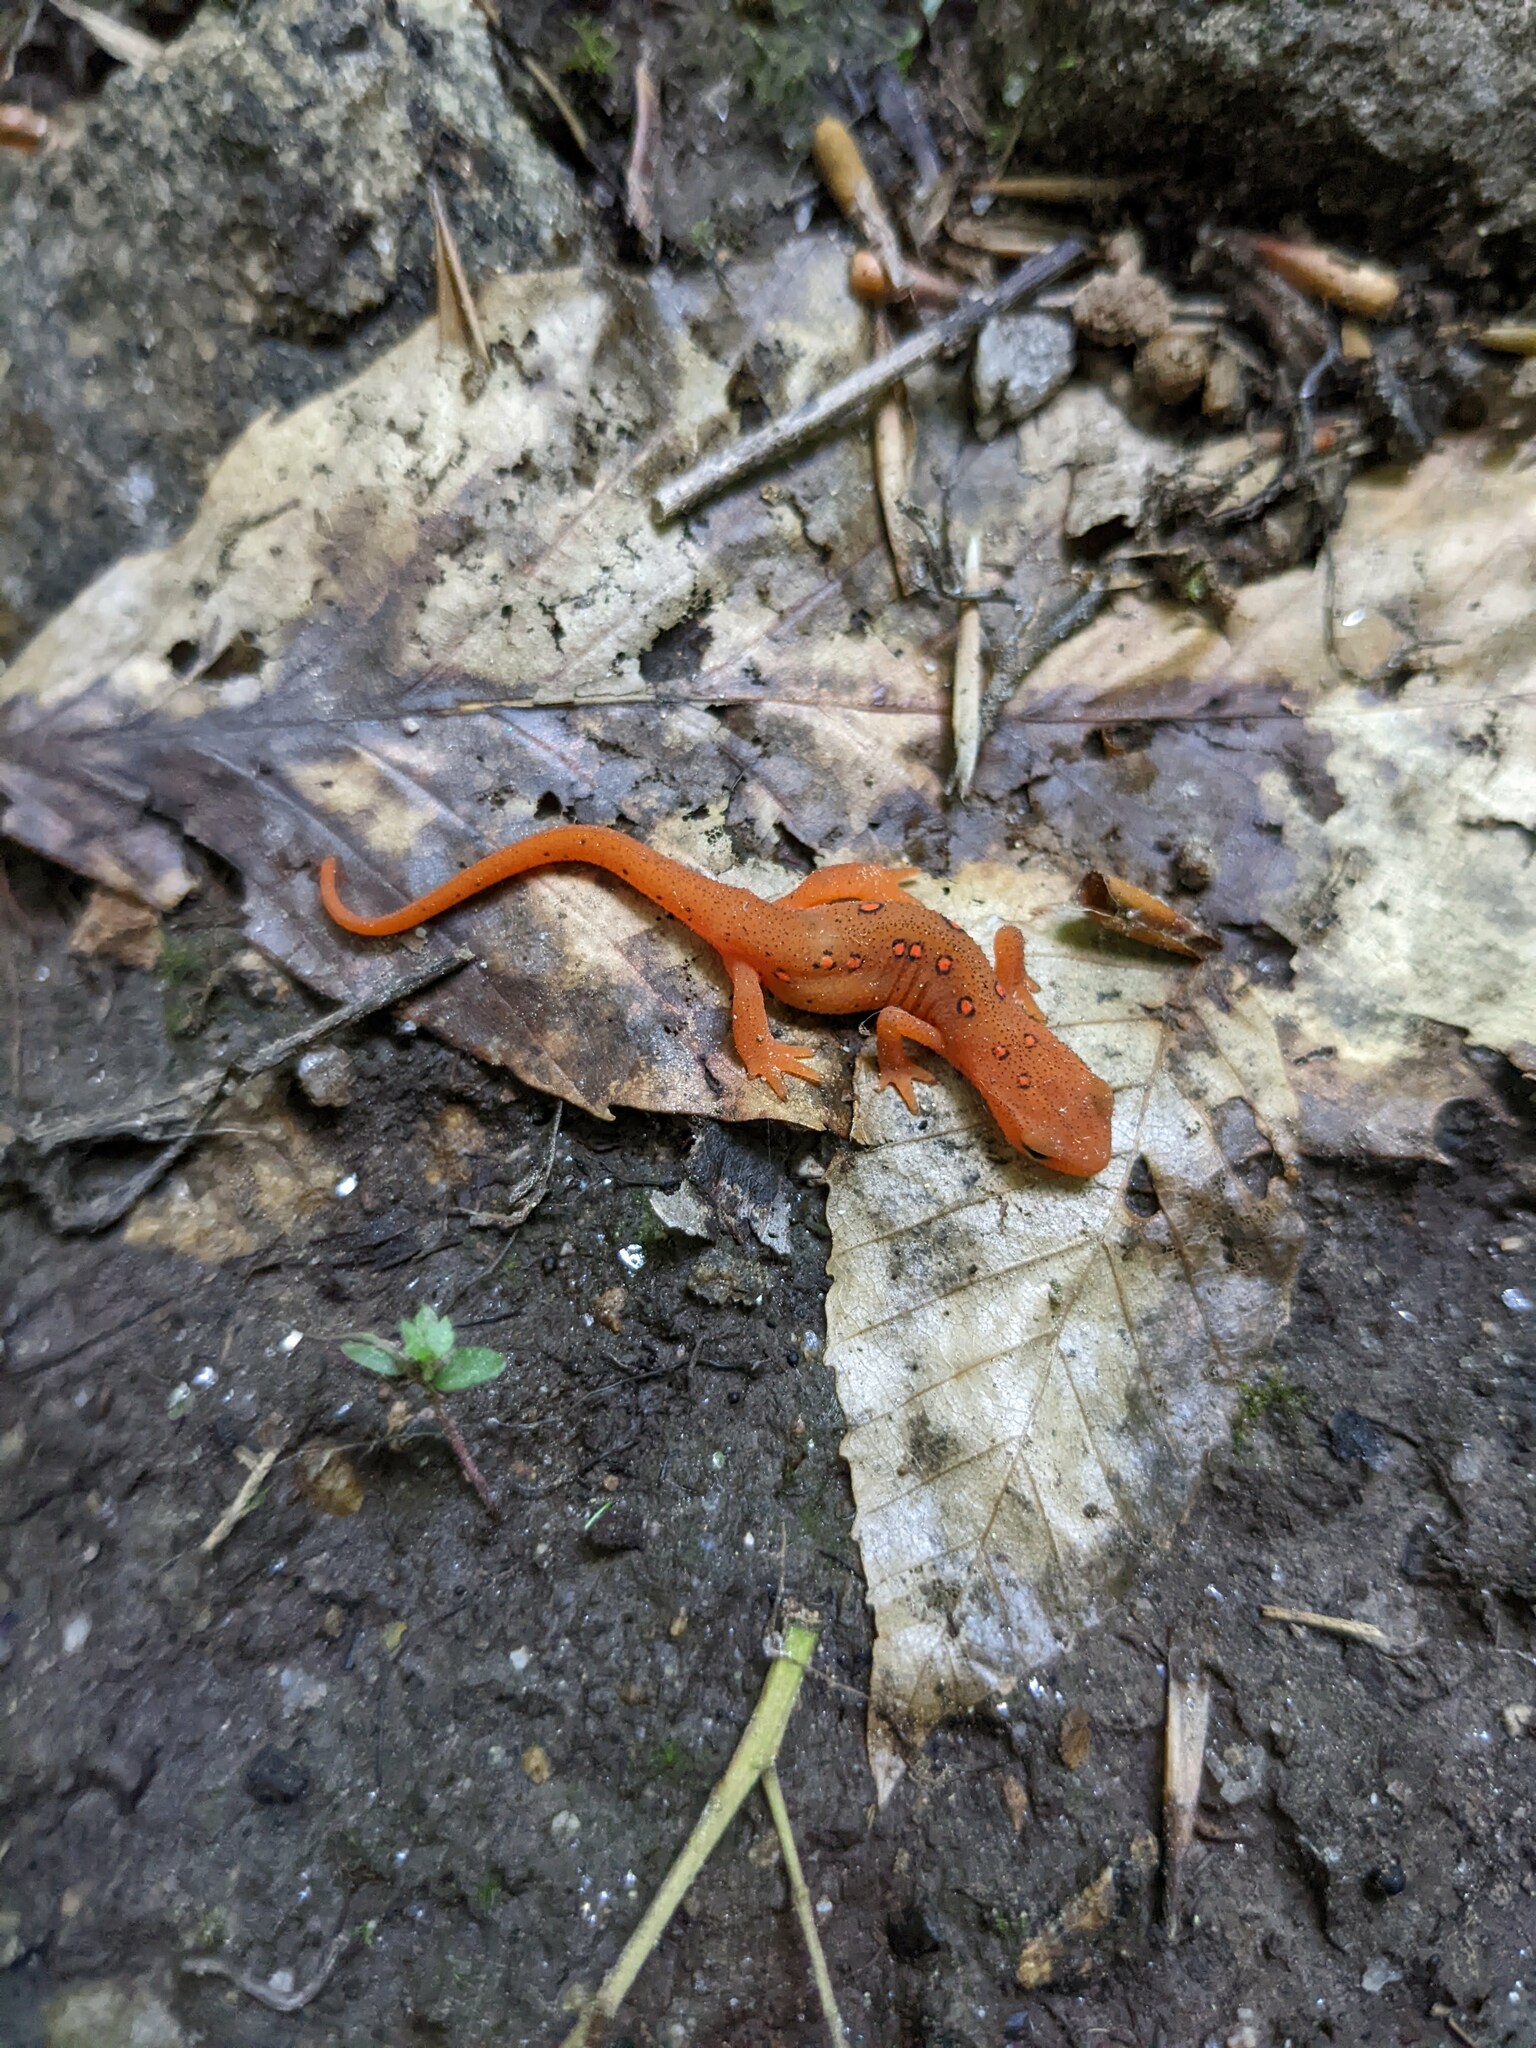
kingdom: Animalia
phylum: Chordata
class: Amphibia
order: Caudata
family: Salamandridae
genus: Notophthalmus
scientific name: Notophthalmus viridescens
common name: Eastern newt
